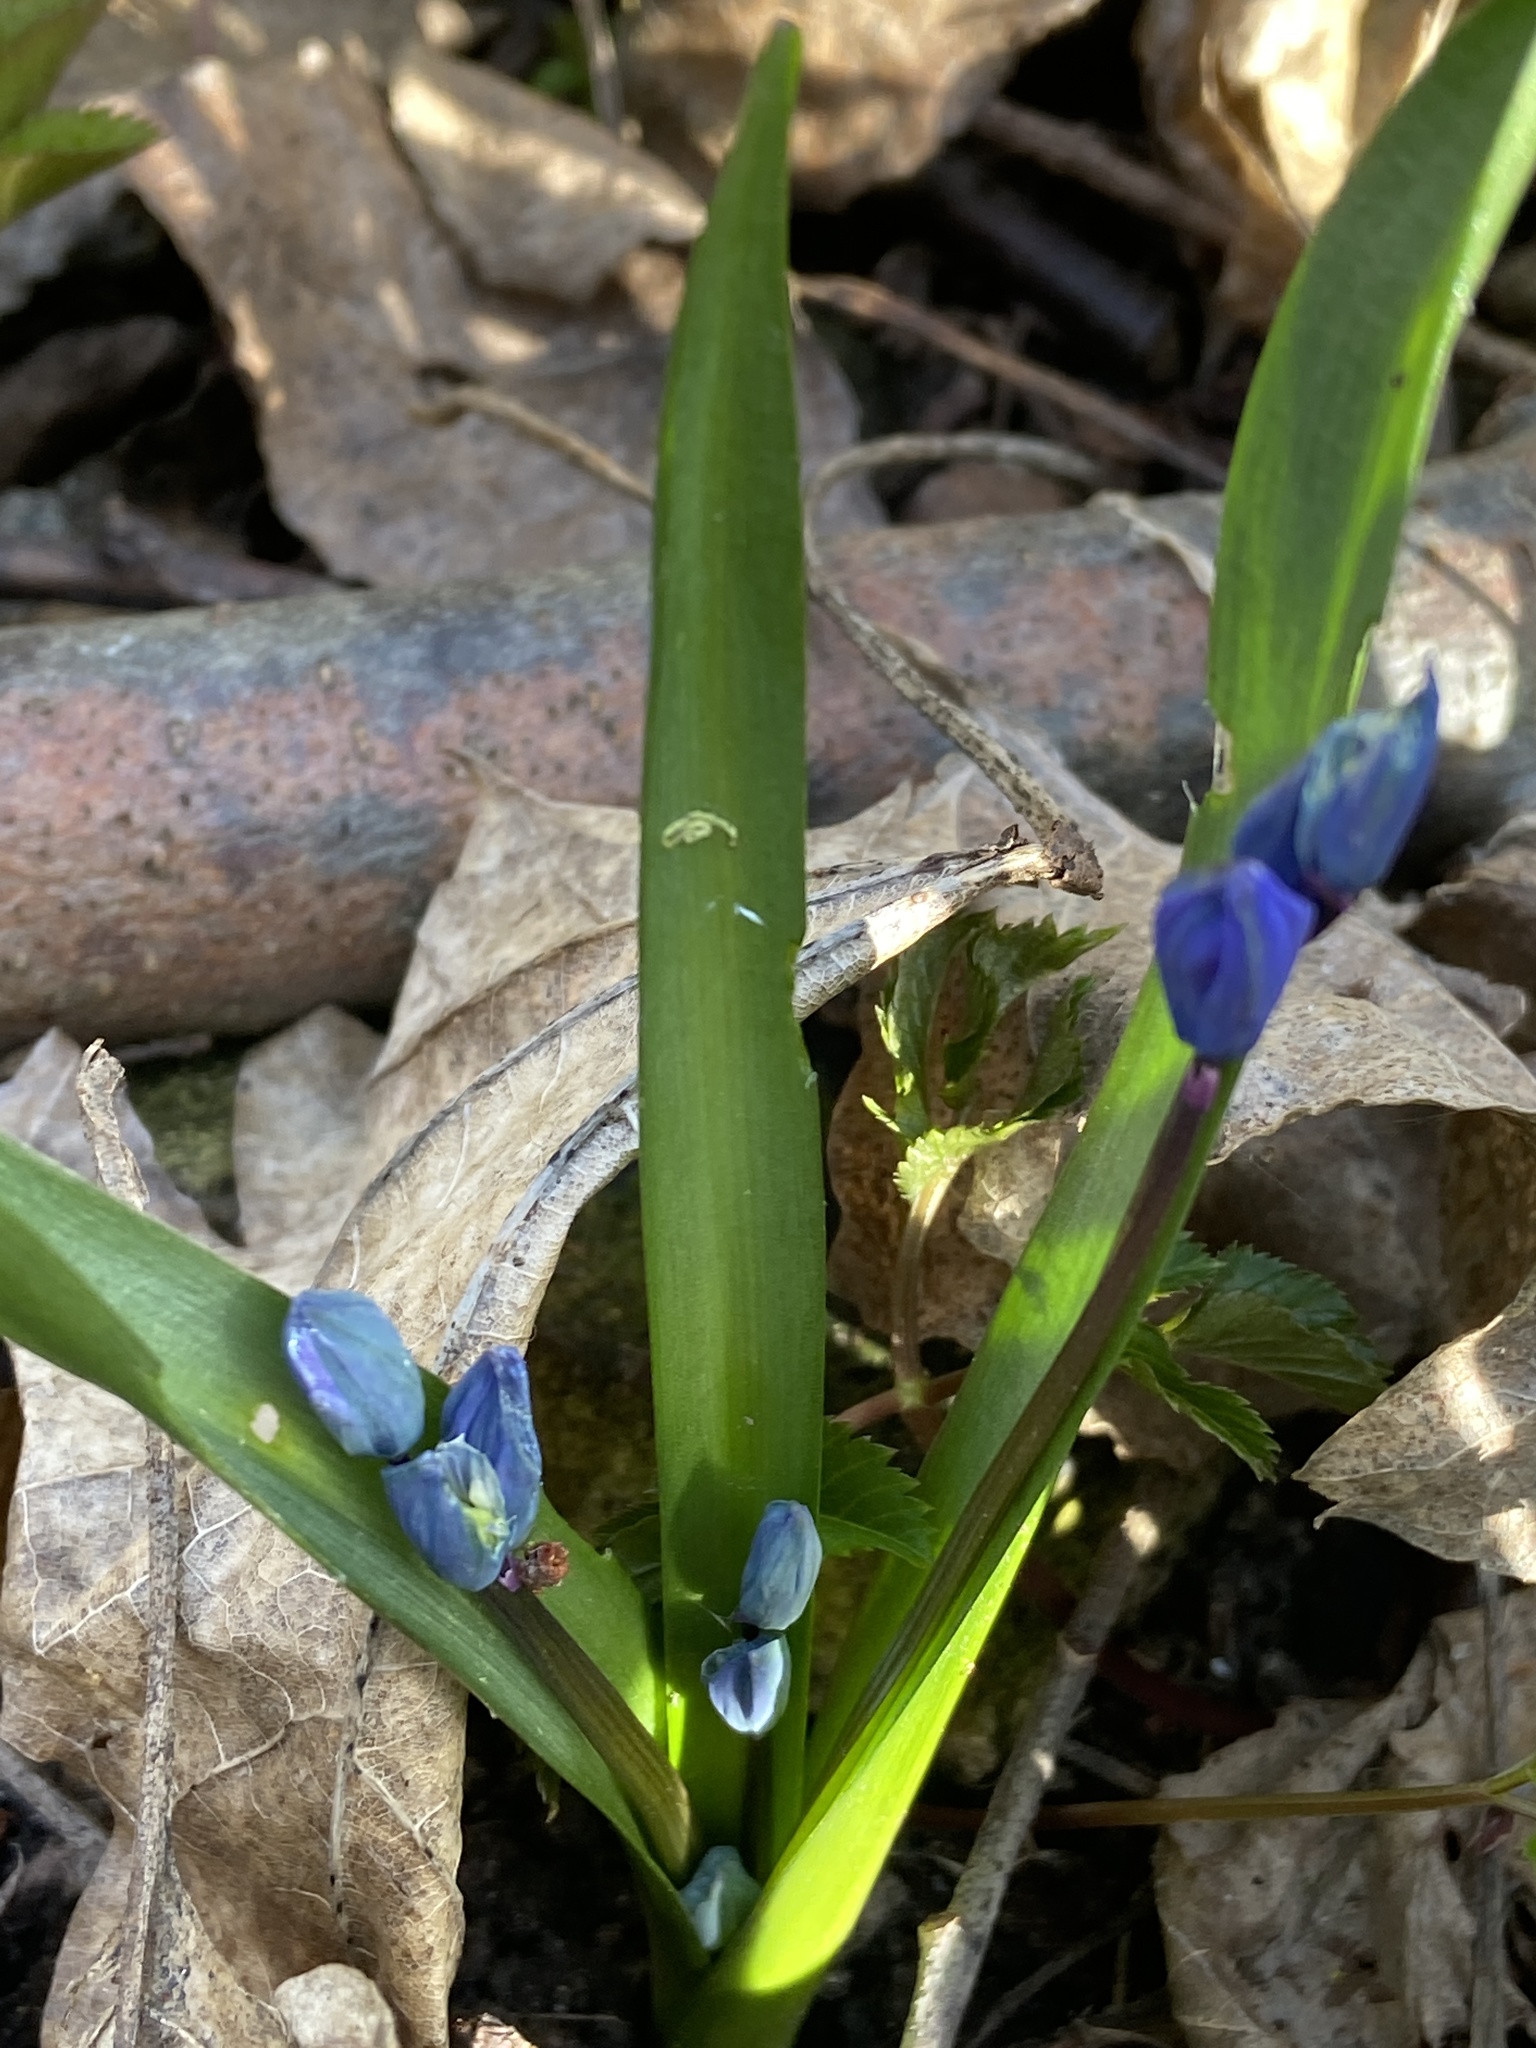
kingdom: Plantae
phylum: Tracheophyta
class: Liliopsida
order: Asparagales
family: Asparagaceae
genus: Scilla
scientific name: Scilla siberica
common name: Siberian squill
